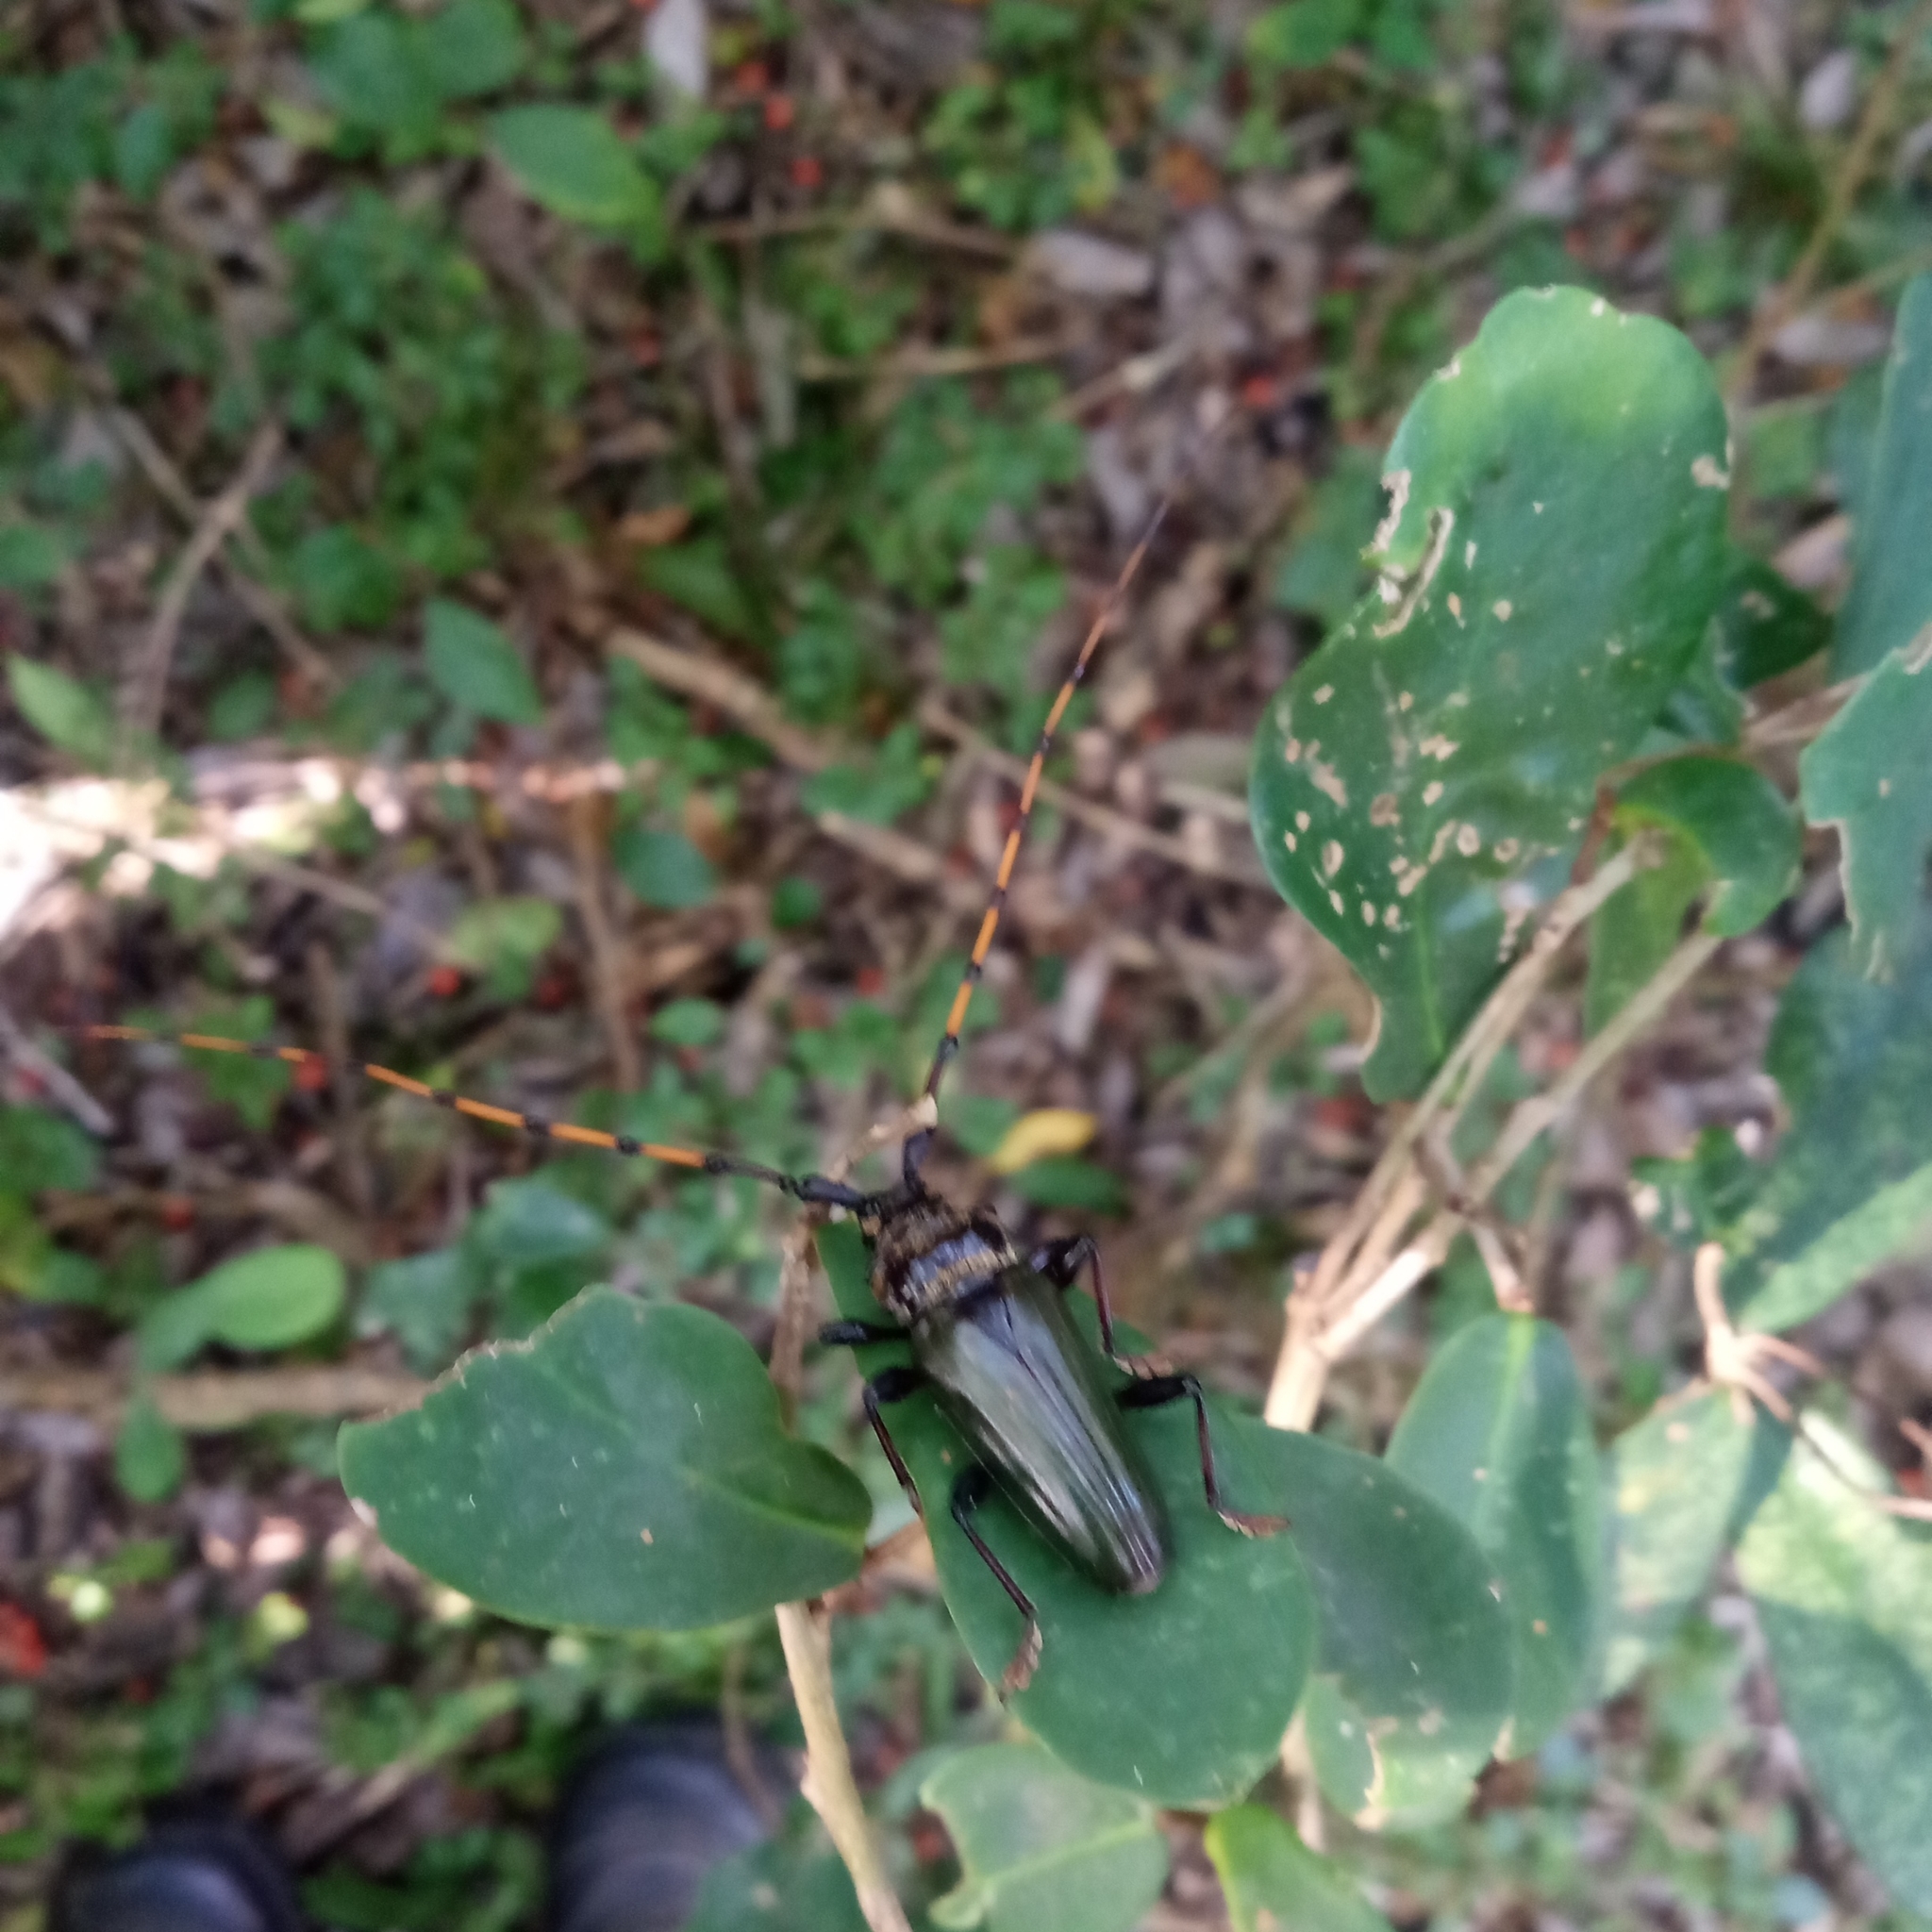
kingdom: Animalia
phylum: Arthropoda
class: Insecta
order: Coleoptera
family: Cerambycidae
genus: Retrachydes
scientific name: Retrachydes thoracicus
